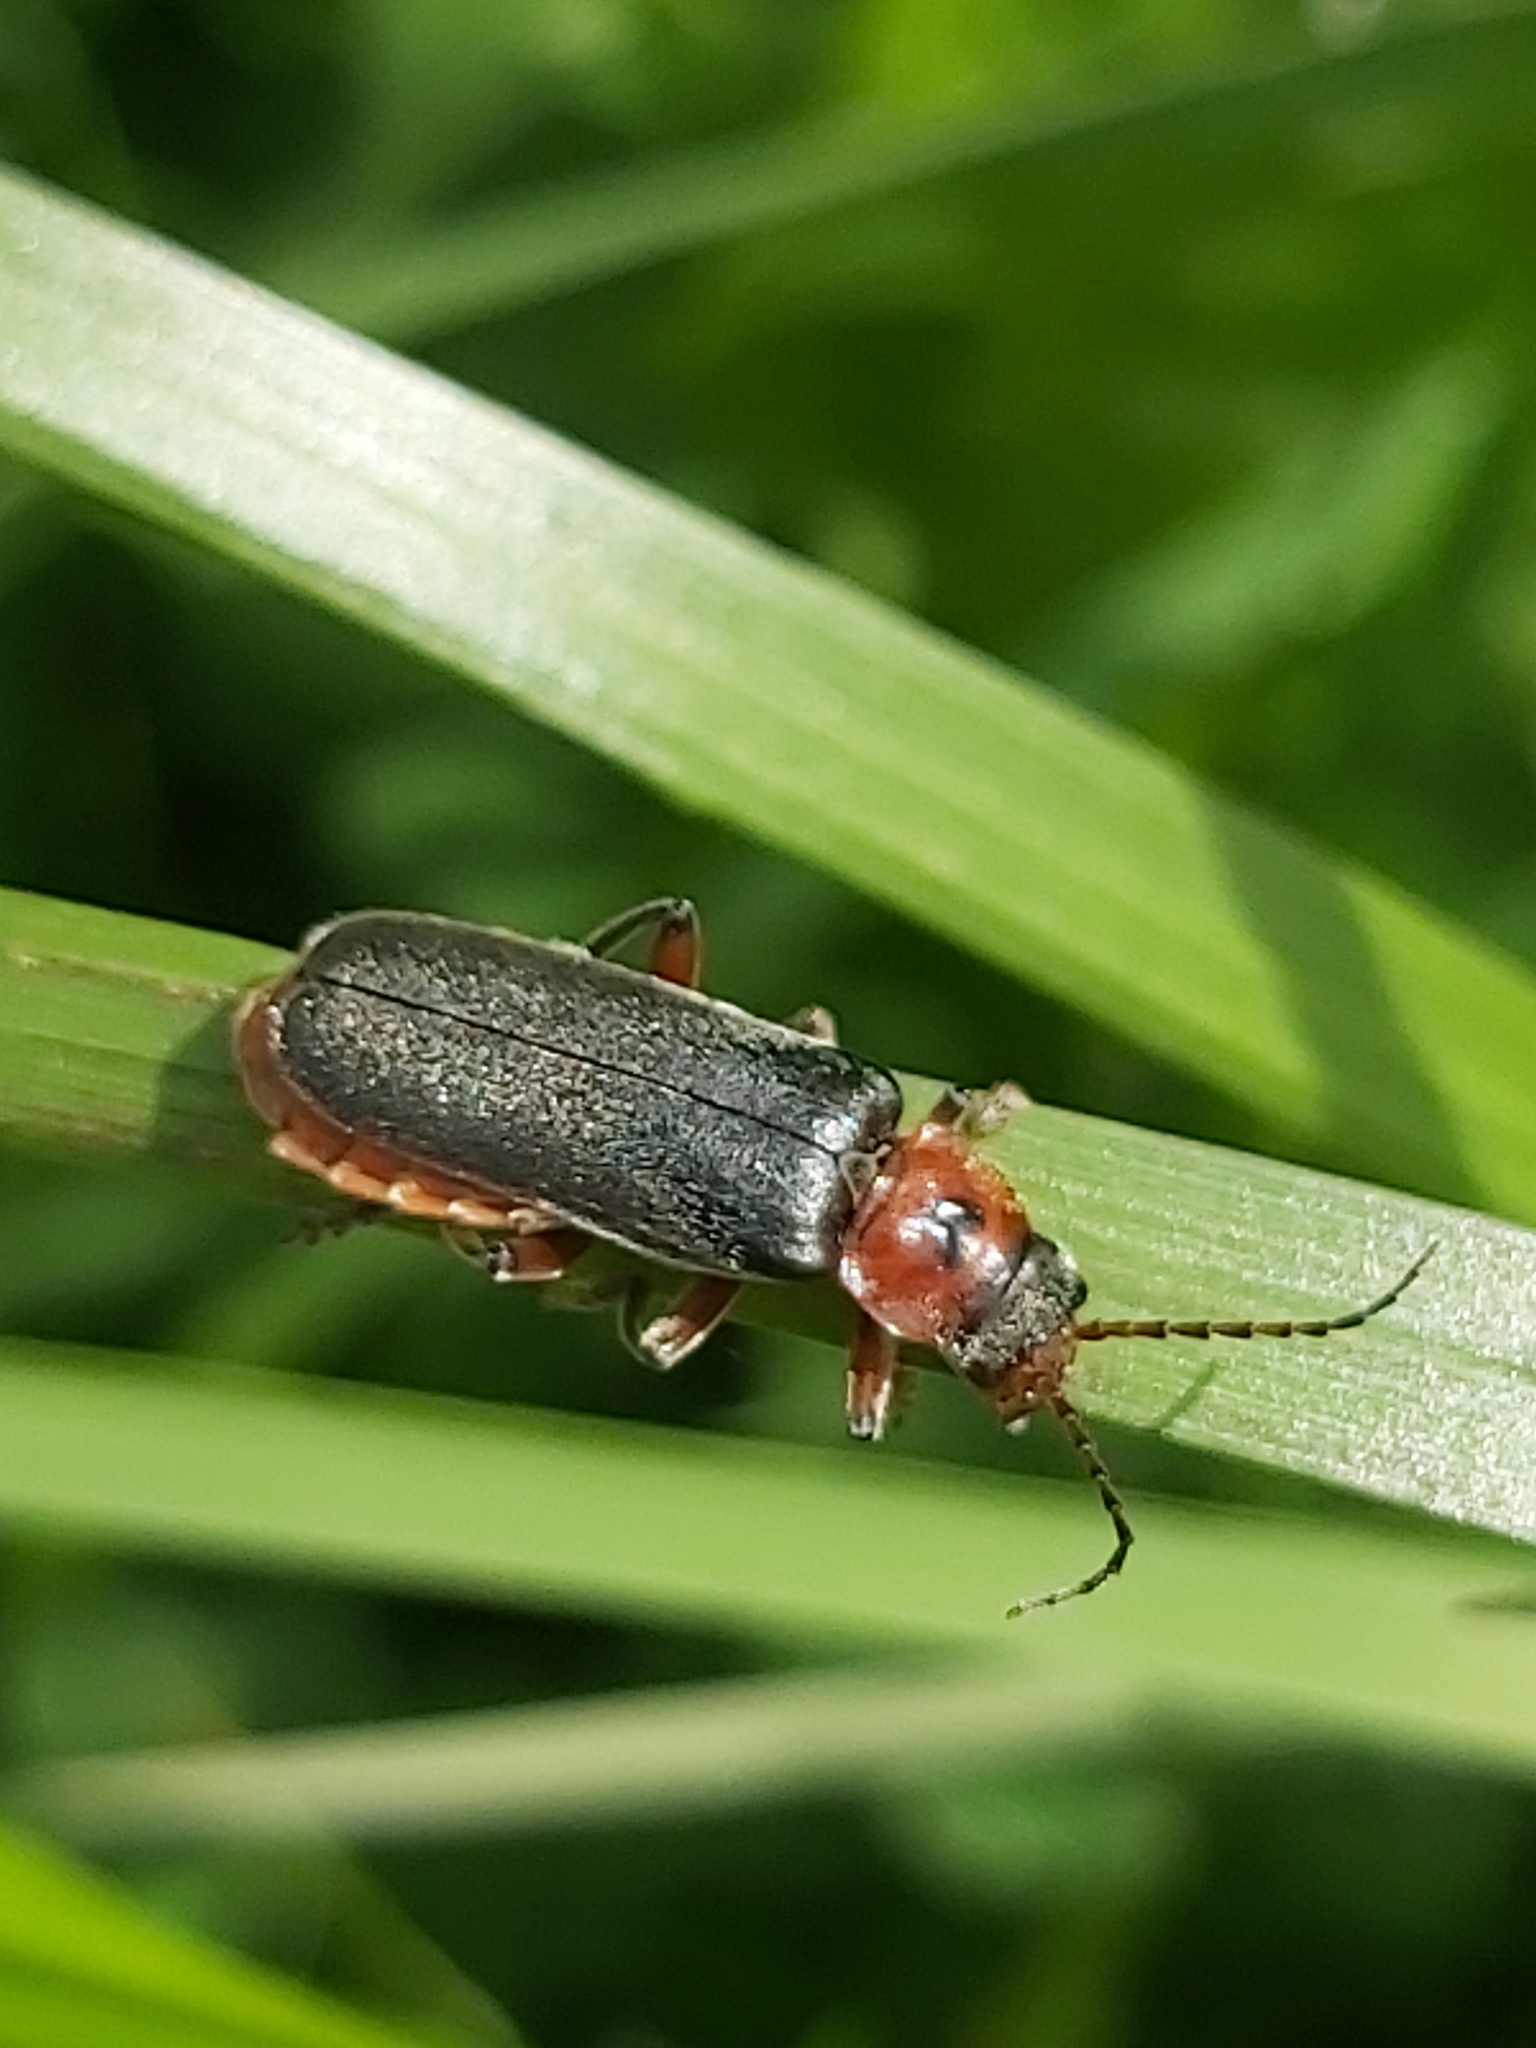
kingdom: Animalia
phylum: Arthropoda
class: Insecta
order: Coleoptera
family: Cantharidae
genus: Cantharis
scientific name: Cantharis rustica
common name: Soldier beetle
